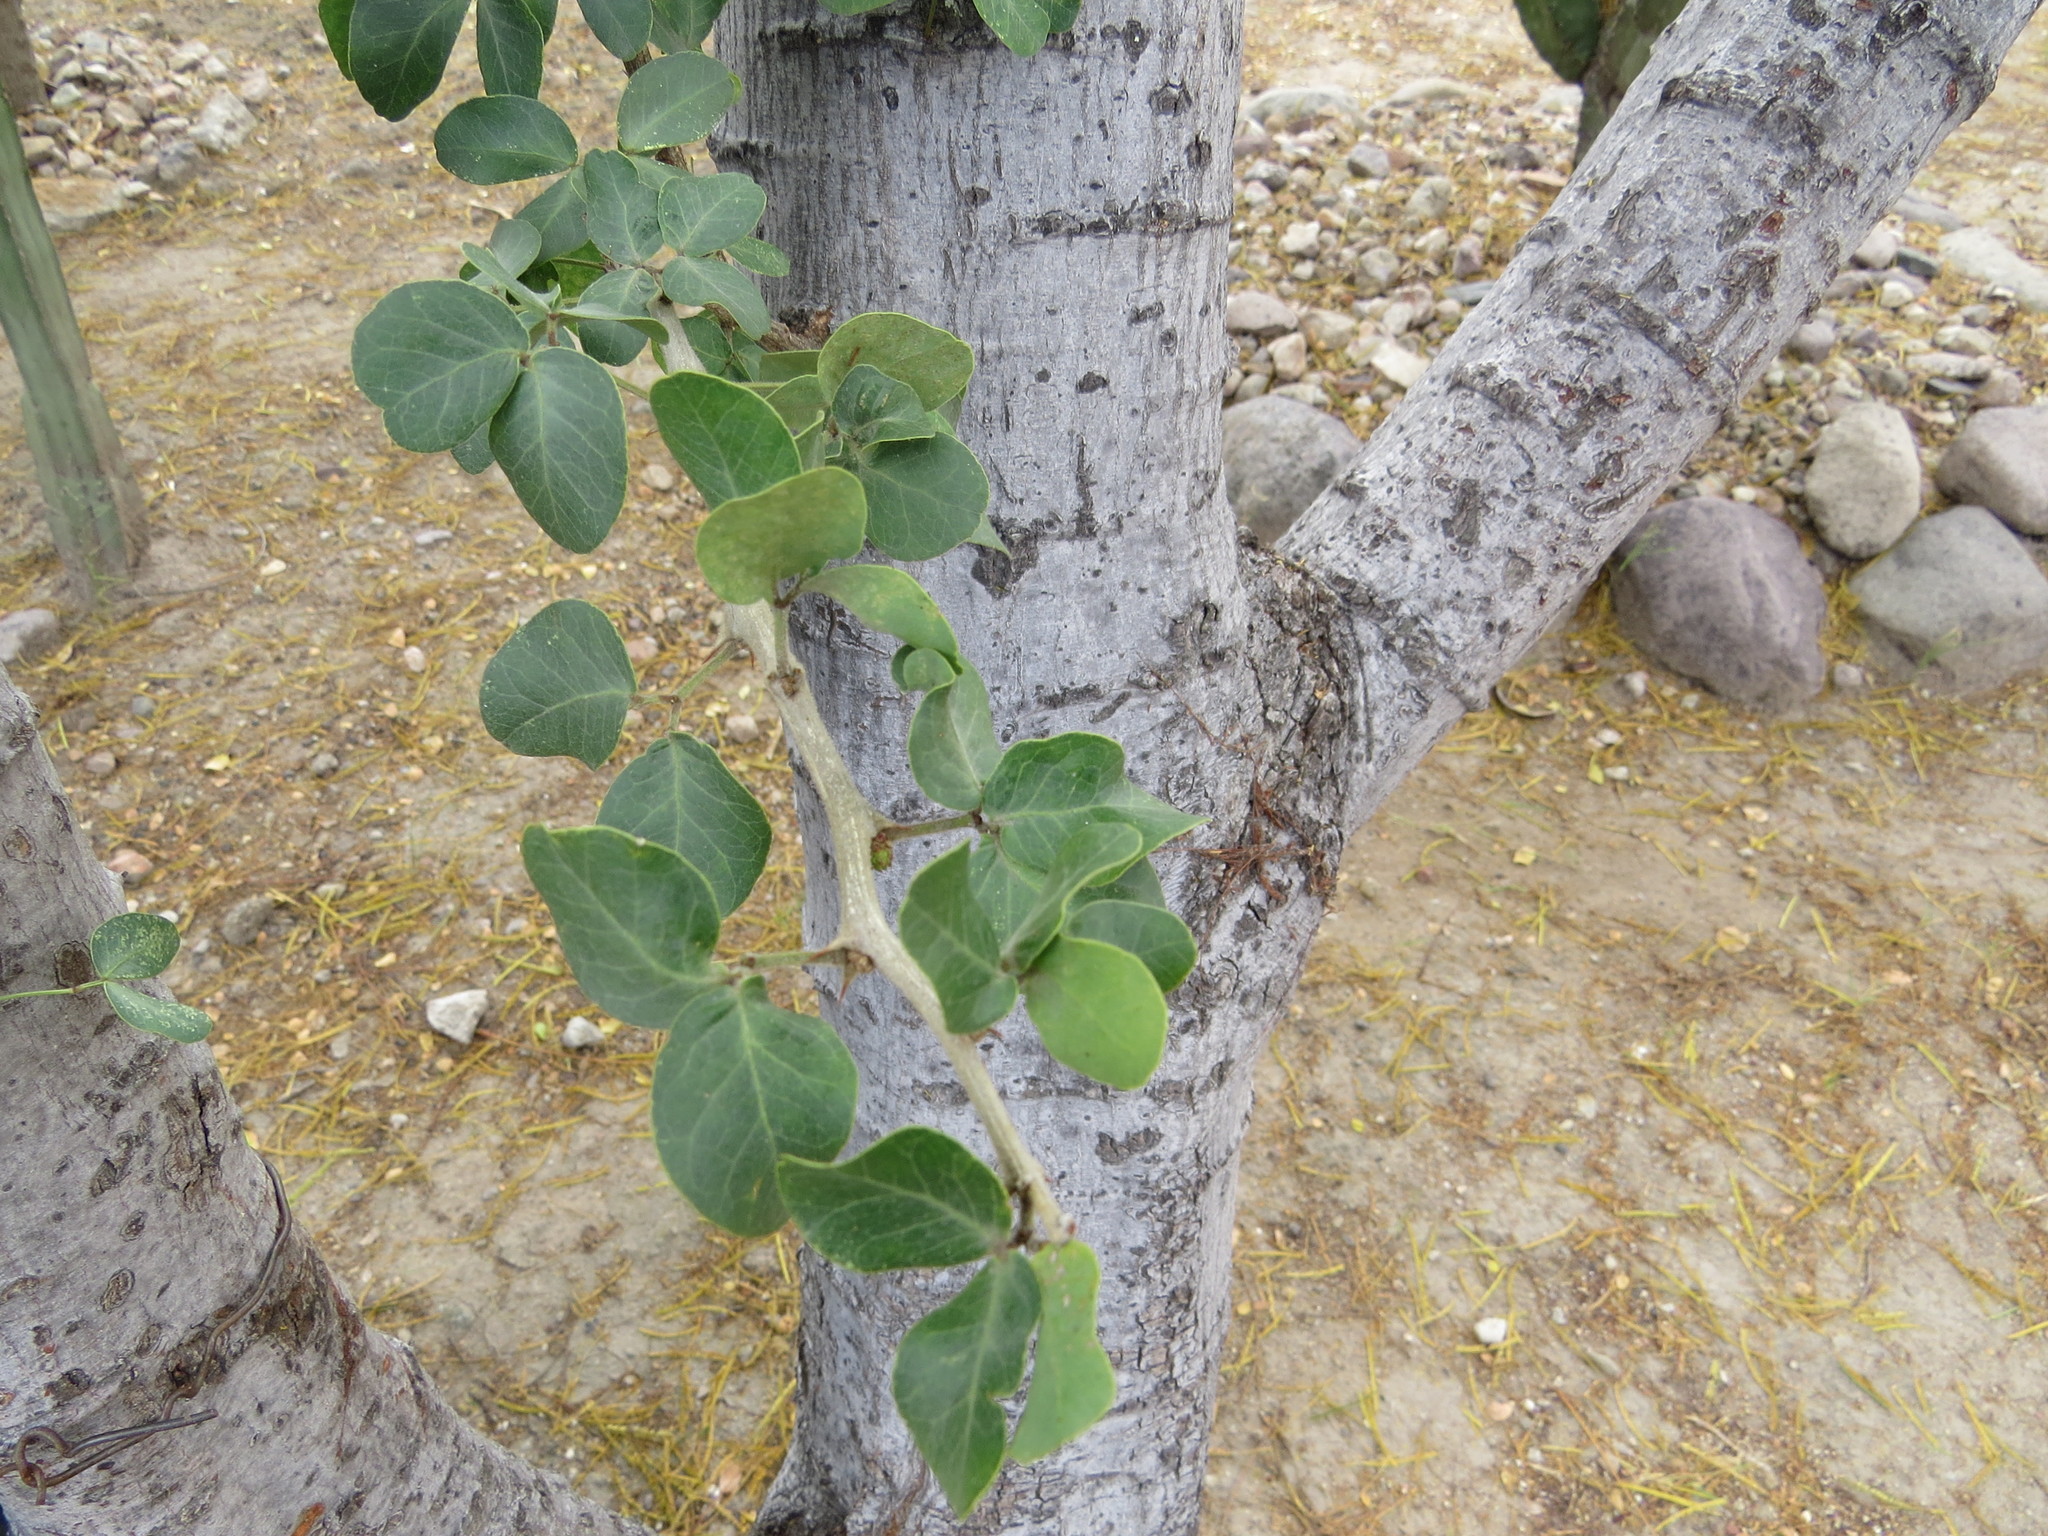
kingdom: Plantae
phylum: Tracheophyta
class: Magnoliopsida
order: Fabales
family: Fabaceae
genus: Pithecellobium
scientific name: Pithecellobium dulce
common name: Monkeypod
